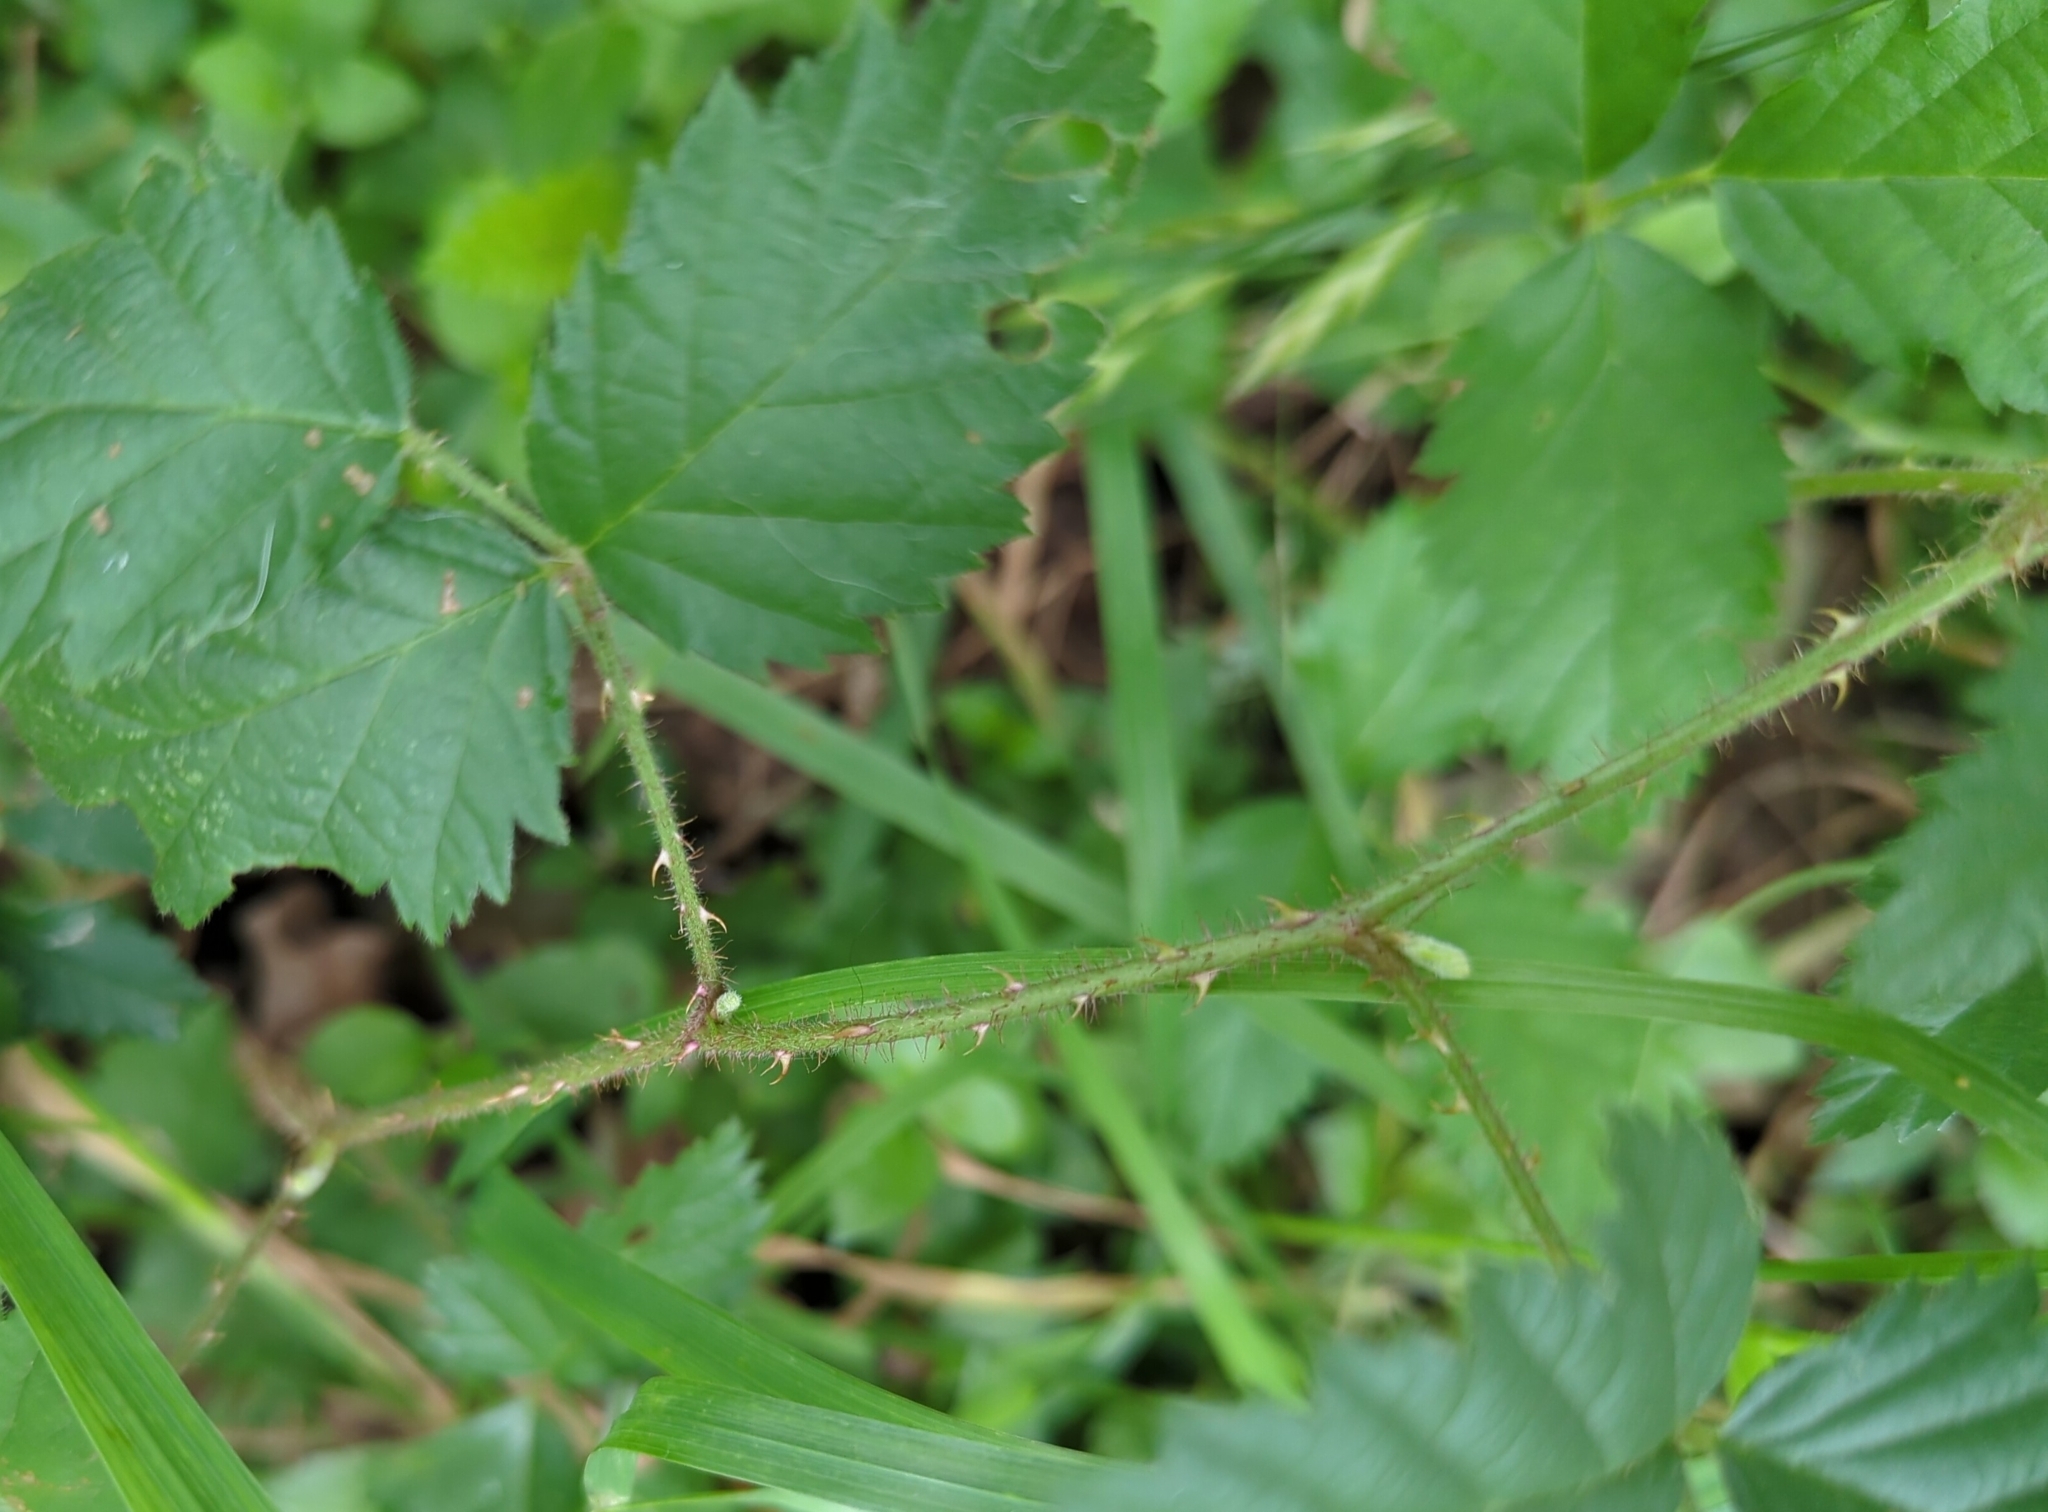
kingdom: Plantae
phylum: Tracheophyta
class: Magnoliopsida
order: Rosales
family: Rosaceae
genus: Rubus
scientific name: Rubus trivialis
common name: Southern dewberry
